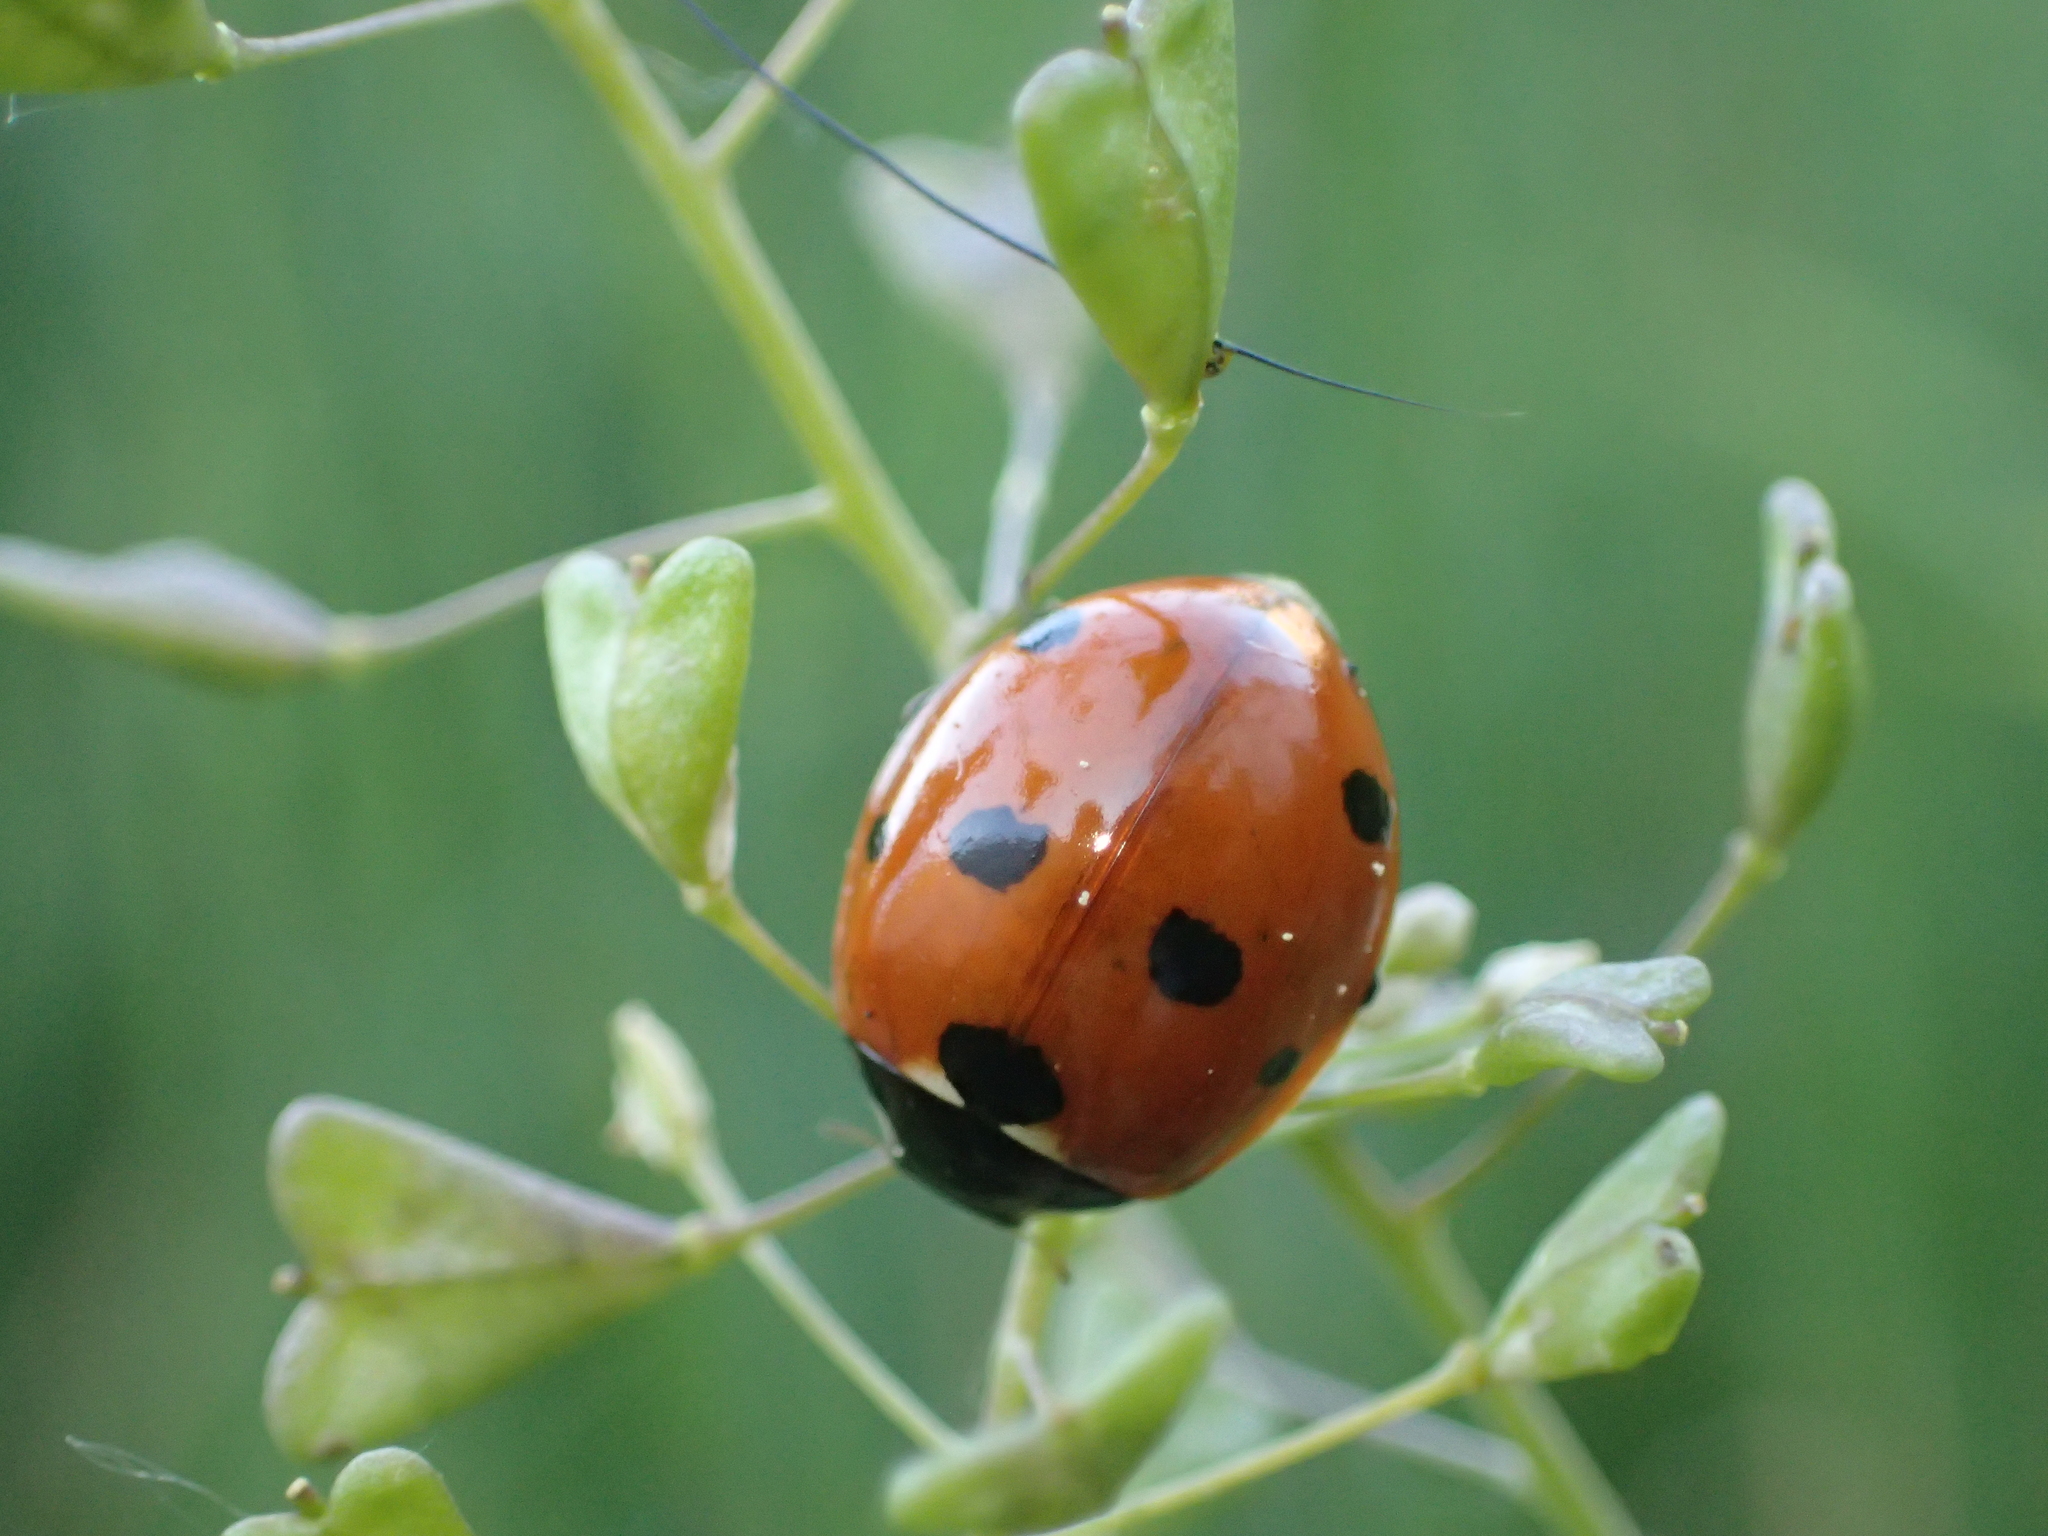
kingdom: Animalia
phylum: Arthropoda
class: Insecta
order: Coleoptera
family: Coccinellidae
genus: Coccinella
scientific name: Coccinella septempunctata
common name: Sevenspotted lady beetle
